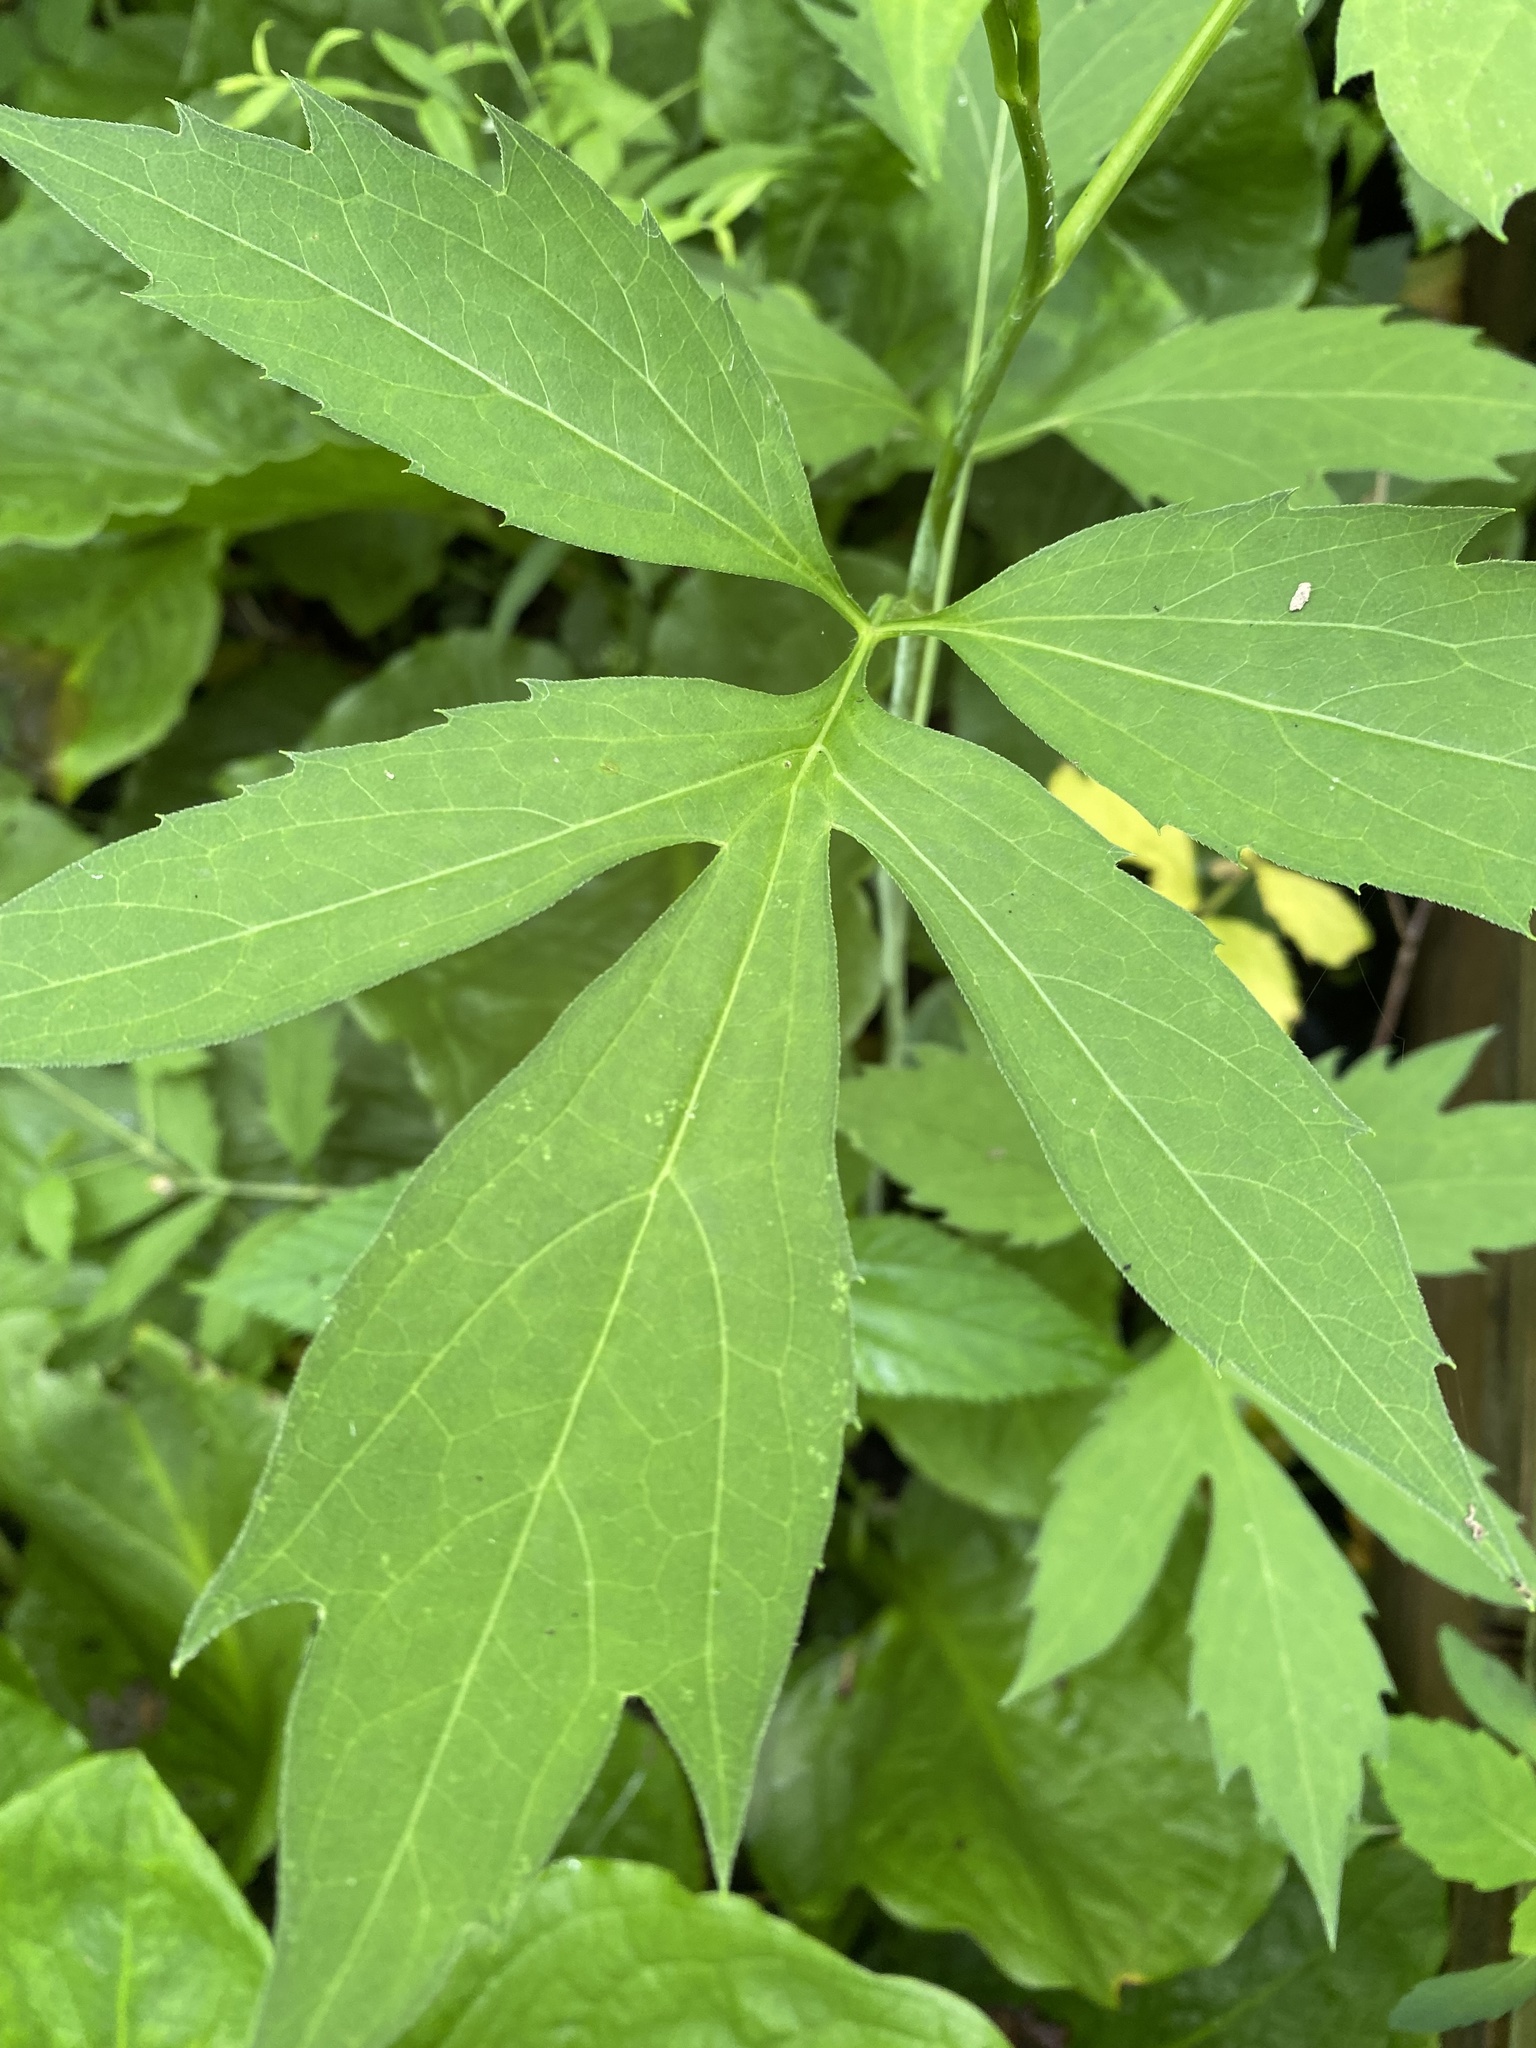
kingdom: Plantae
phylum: Tracheophyta
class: Magnoliopsida
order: Asterales
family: Asteraceae
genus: Rudbeckia
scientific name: Rudbeckia laciniata
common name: Coneflower
